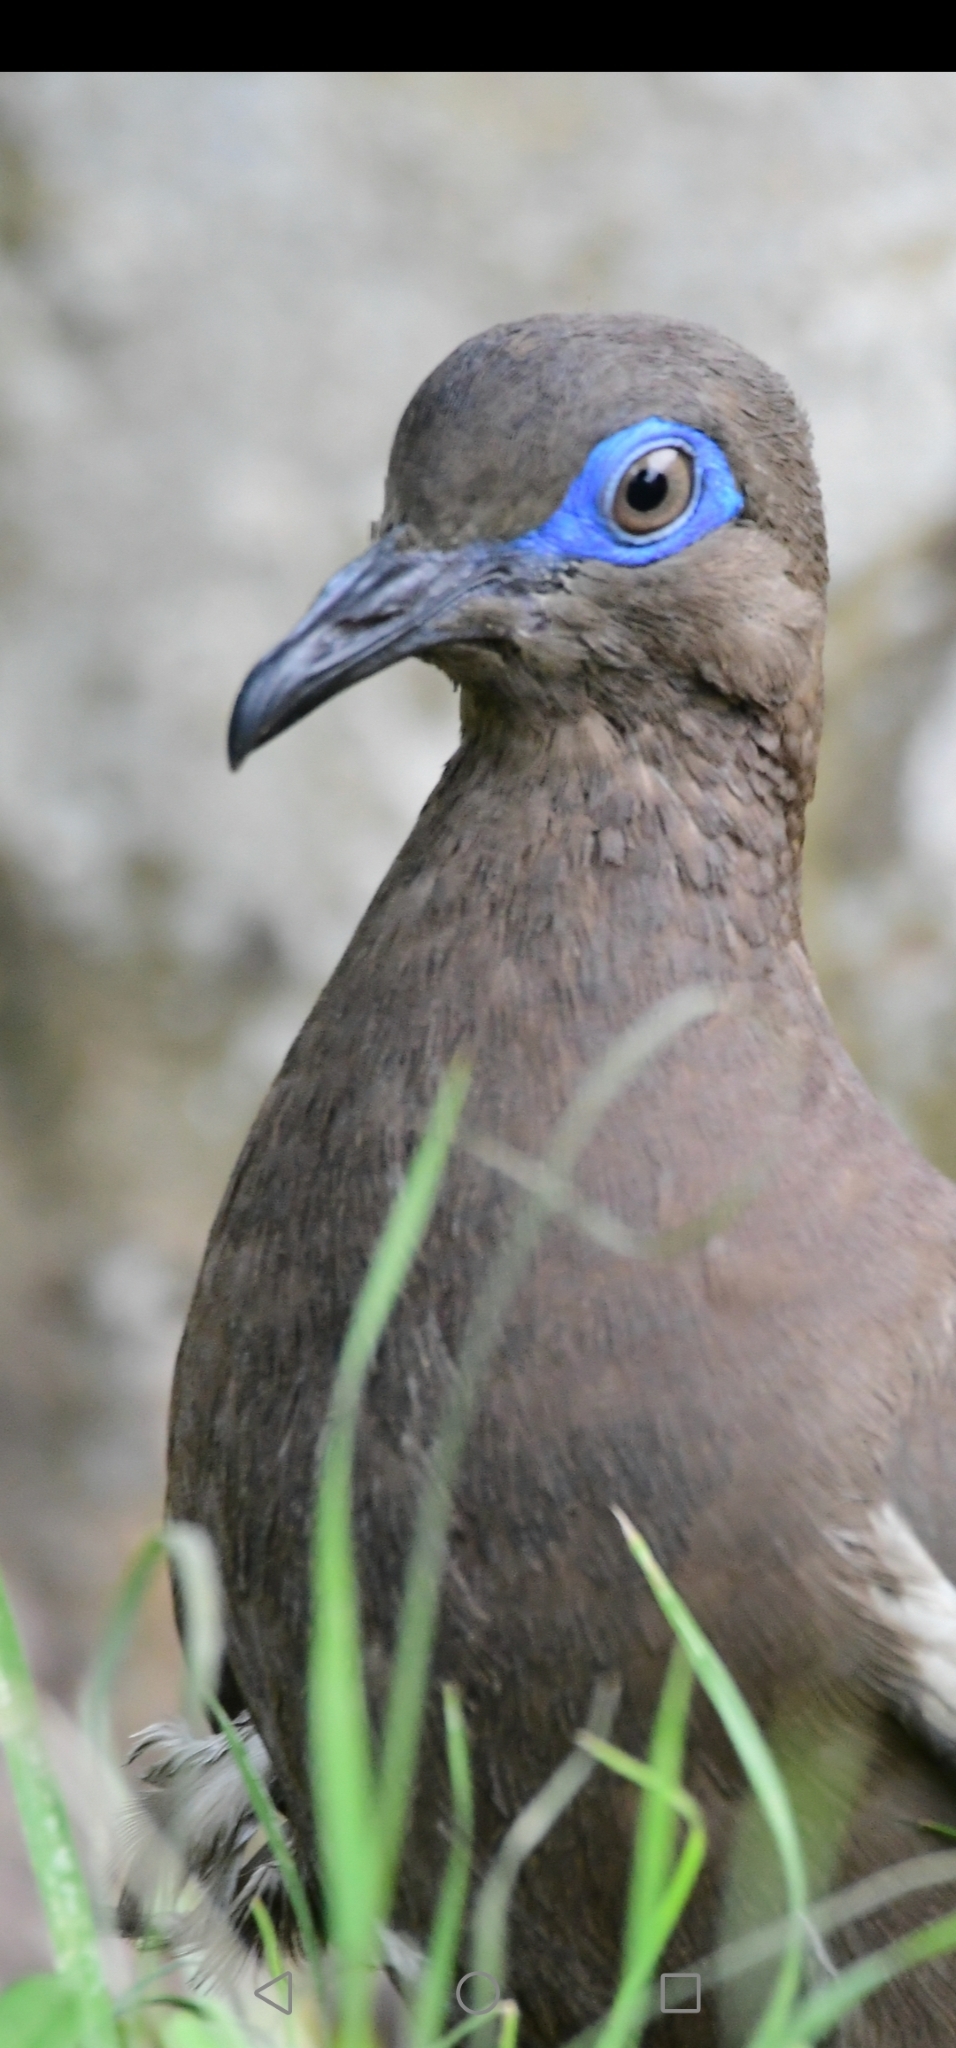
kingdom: Animalia
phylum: Chordata
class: Aves
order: Columbiformes
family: Columbidae
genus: Zenaida
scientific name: Zenaida meloda
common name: West peruvian dove
